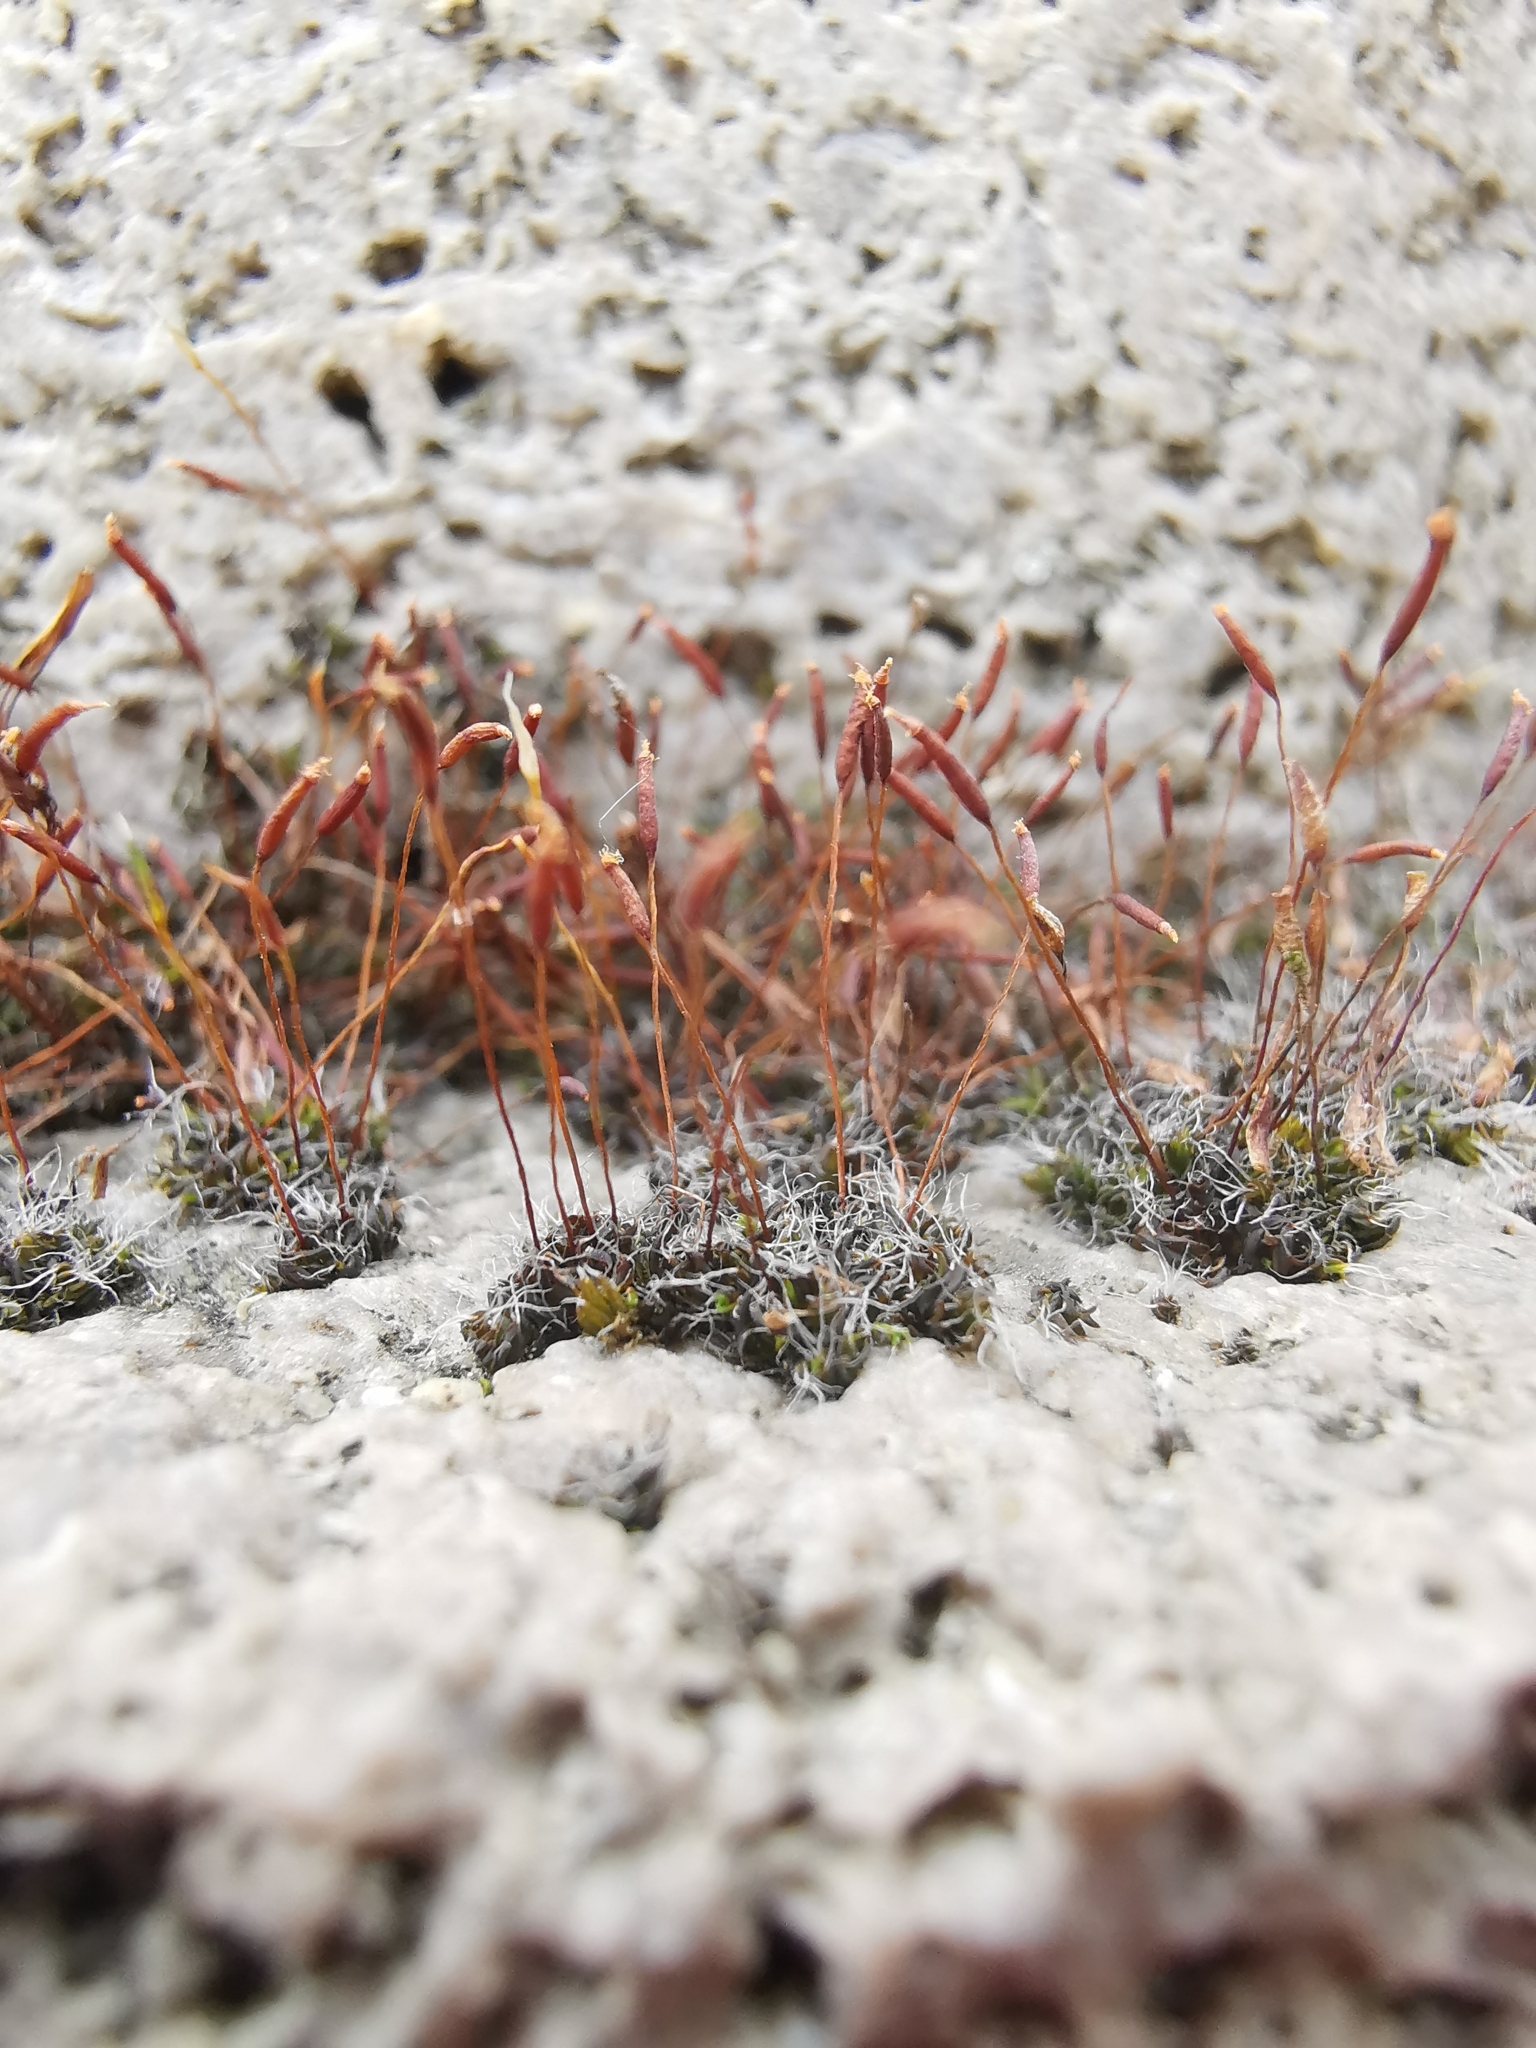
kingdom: Plantae
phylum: Bryophyta
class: Bryopsida
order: Pottiales
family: Pottiaceae
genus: Tortula
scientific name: Tortula muralis
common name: Wall screw-moss
